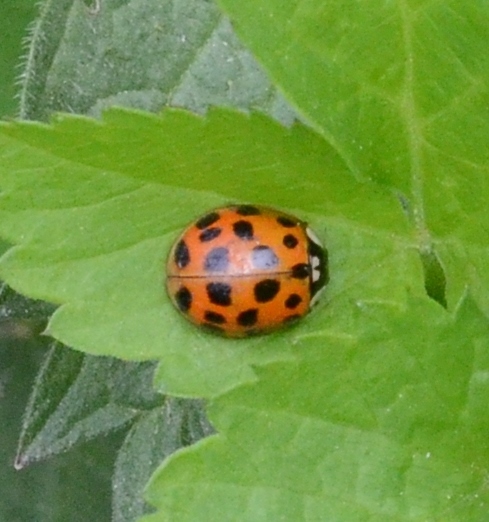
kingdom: Animalia
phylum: Arthropoda
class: Insecta
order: Coleoptera
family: Coccinellidae
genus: Harmonia
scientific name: Harmonia axyridis
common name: Harlequin ladybird
